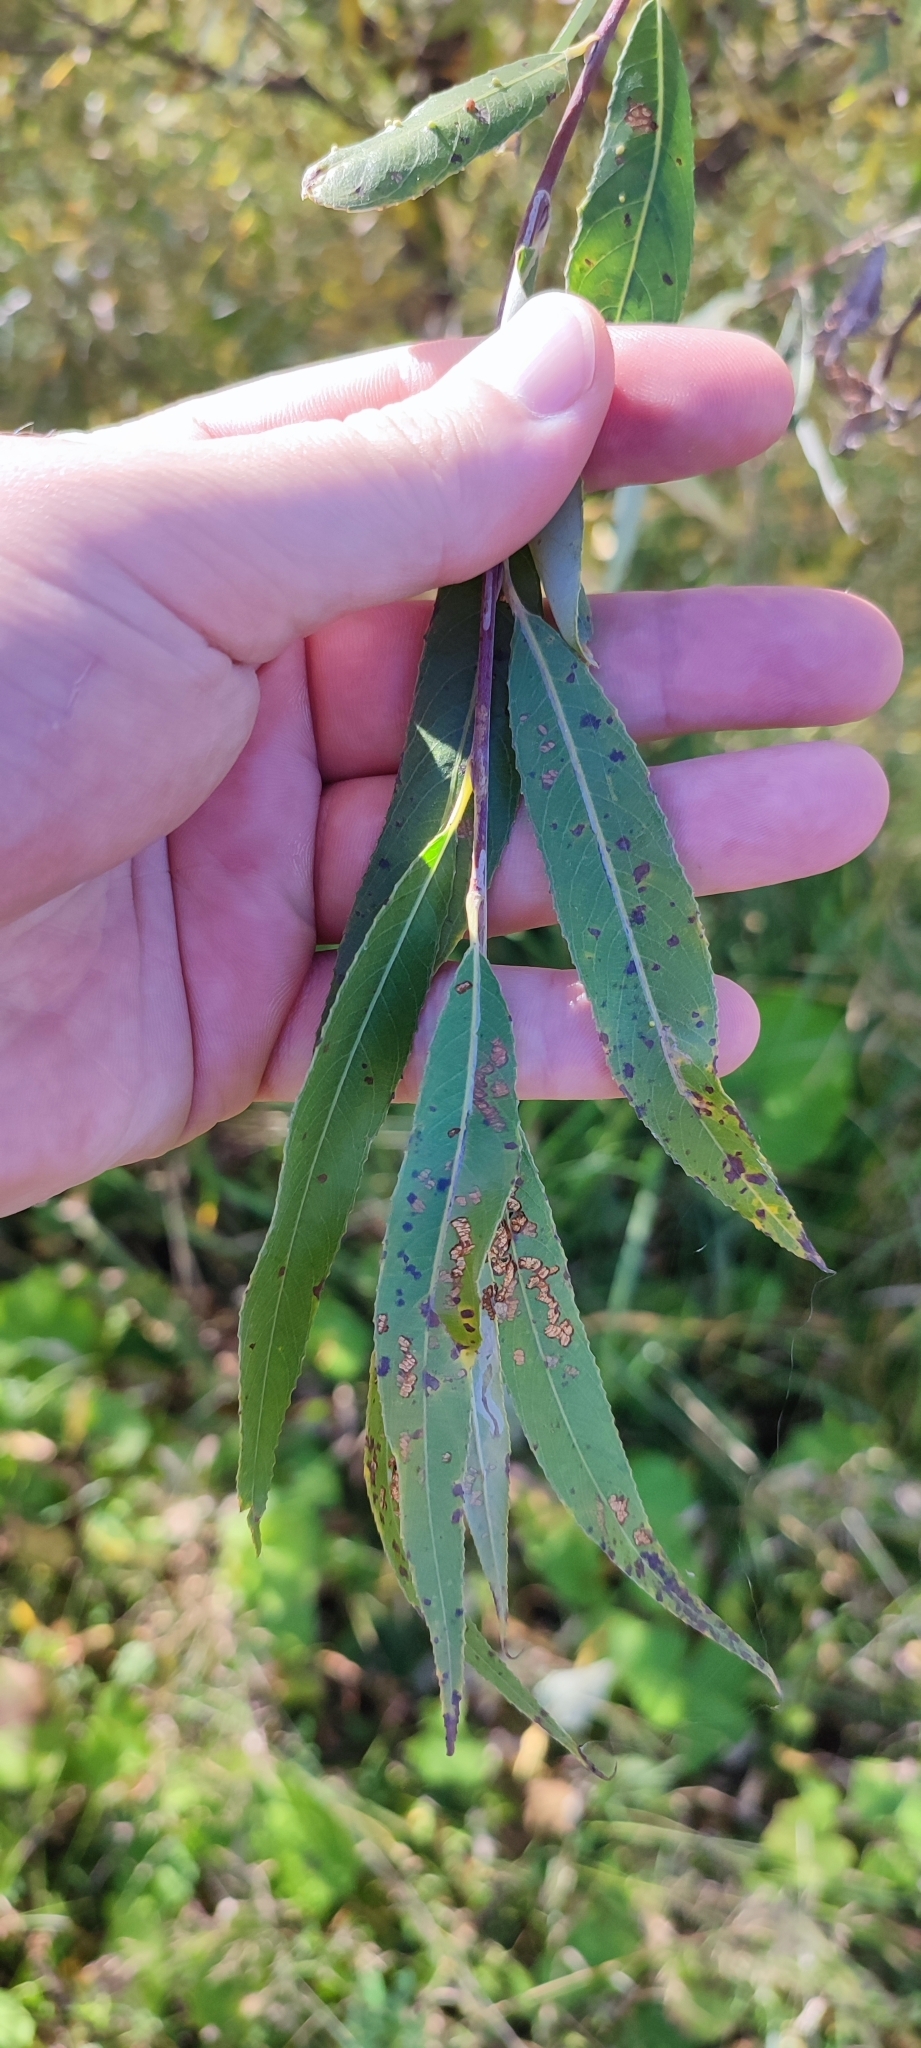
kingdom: Plantae
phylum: Tracheophyta
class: Magnoliopsida
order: Malpighiales
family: Salicaceae
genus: Salix
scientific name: Salix triandra
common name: Almond willow
